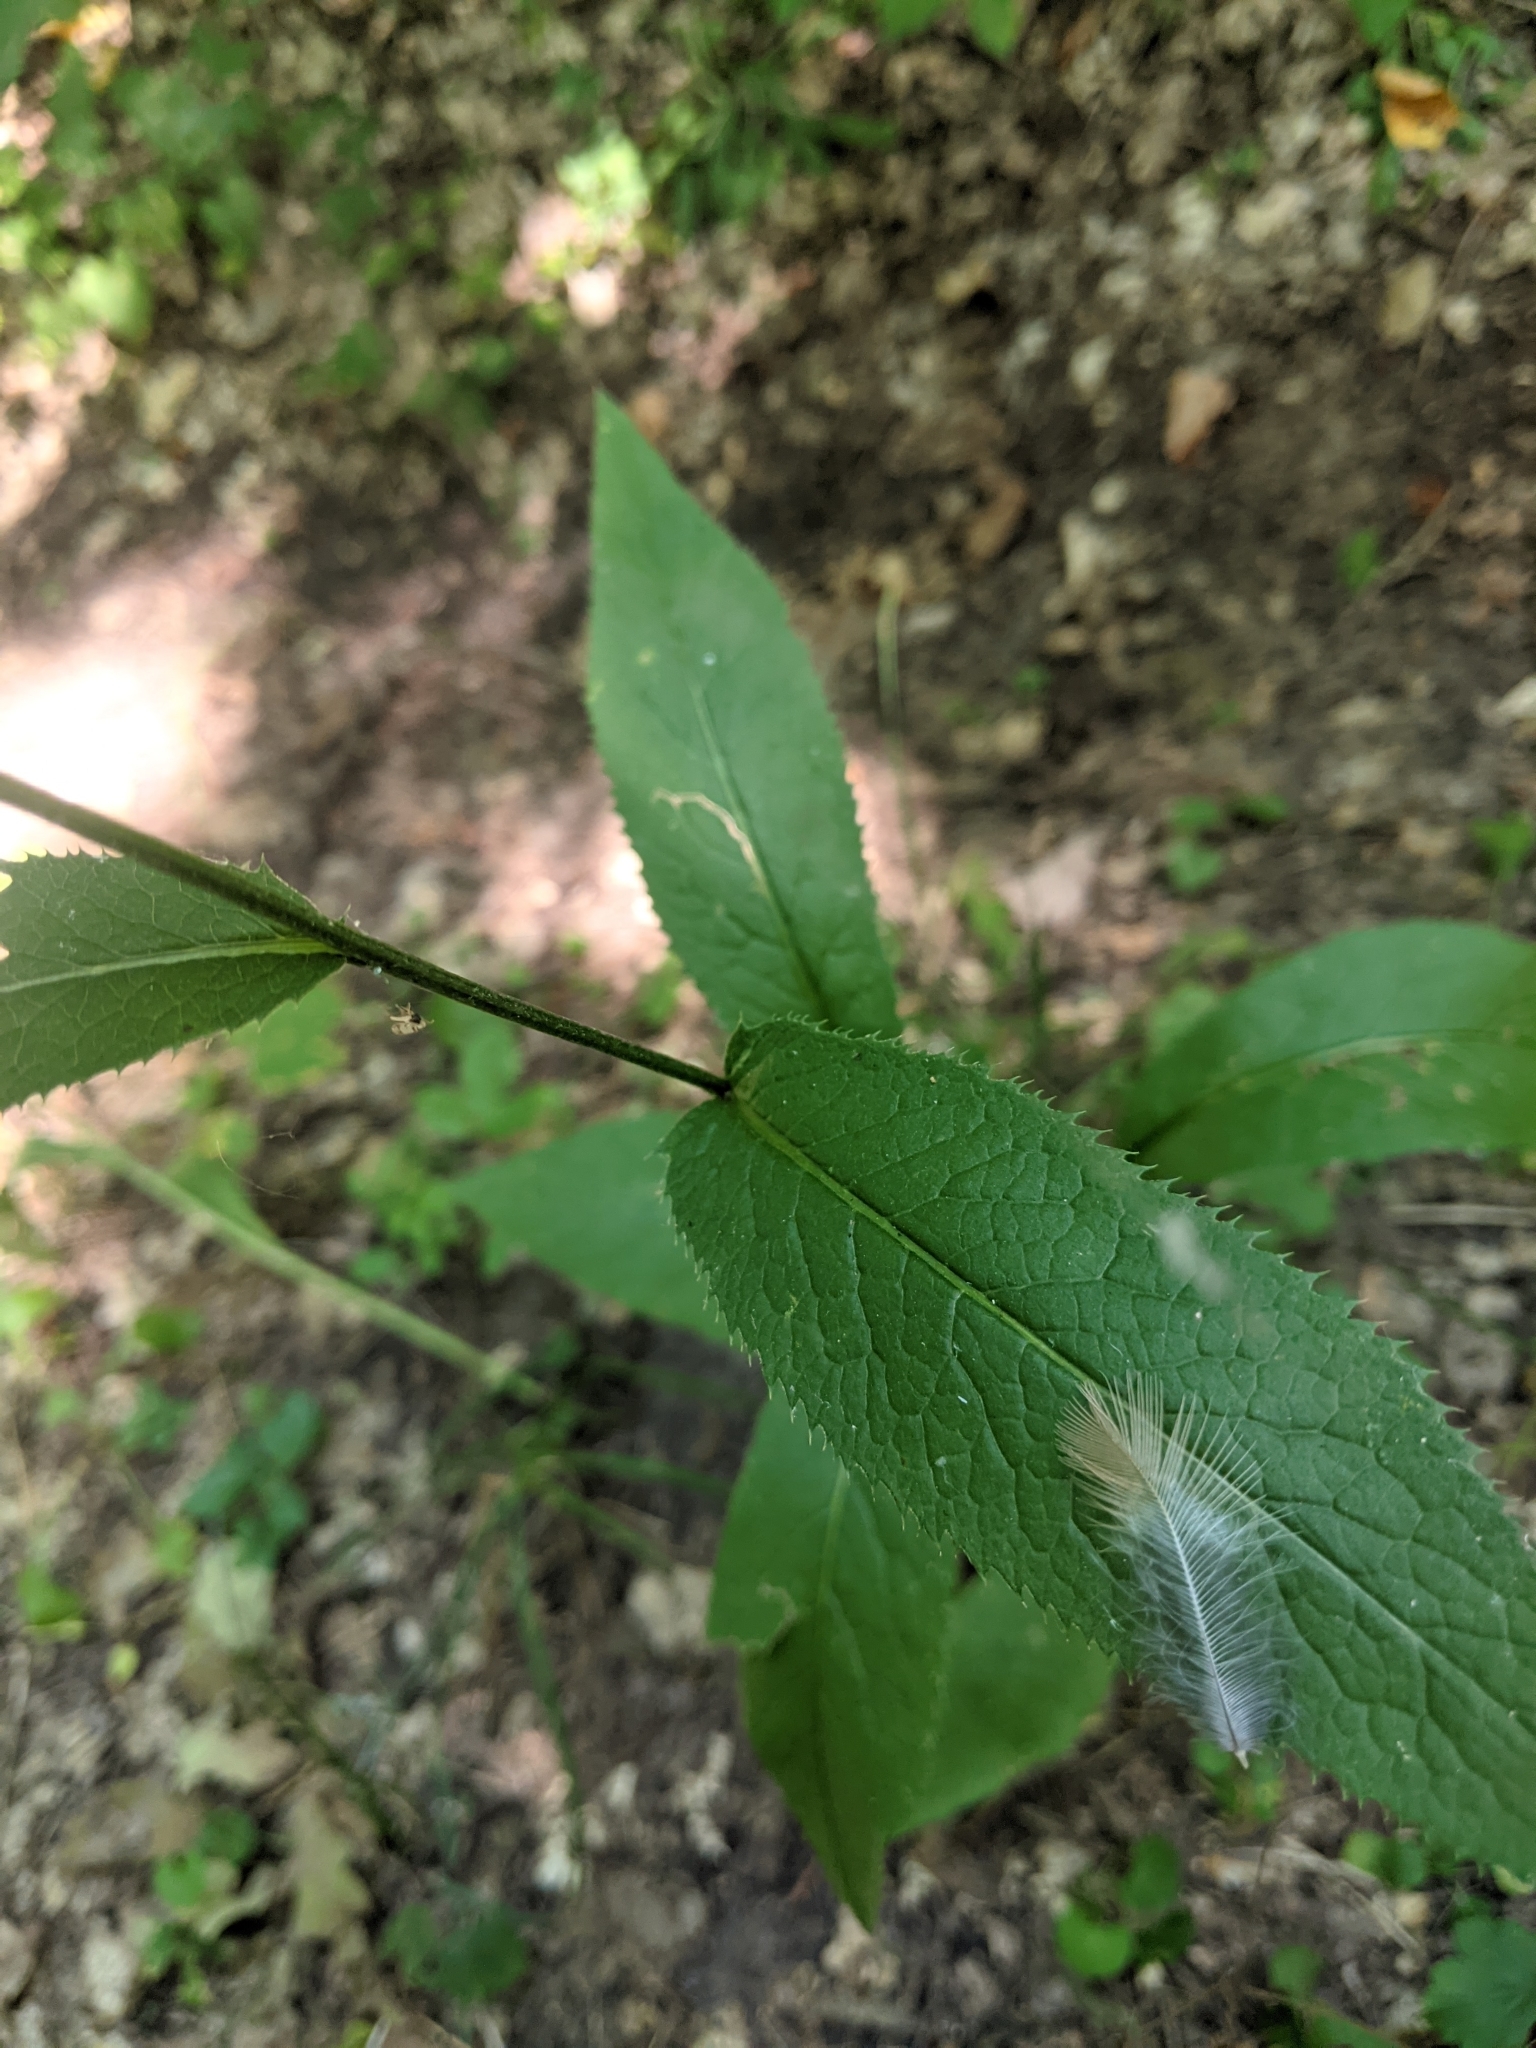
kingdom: Plantae
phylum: Tracheophyta
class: Magnoliopsida
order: Asterales
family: Asteraceae
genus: Serratula
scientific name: Serratula tinctoria
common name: Saw-wort
